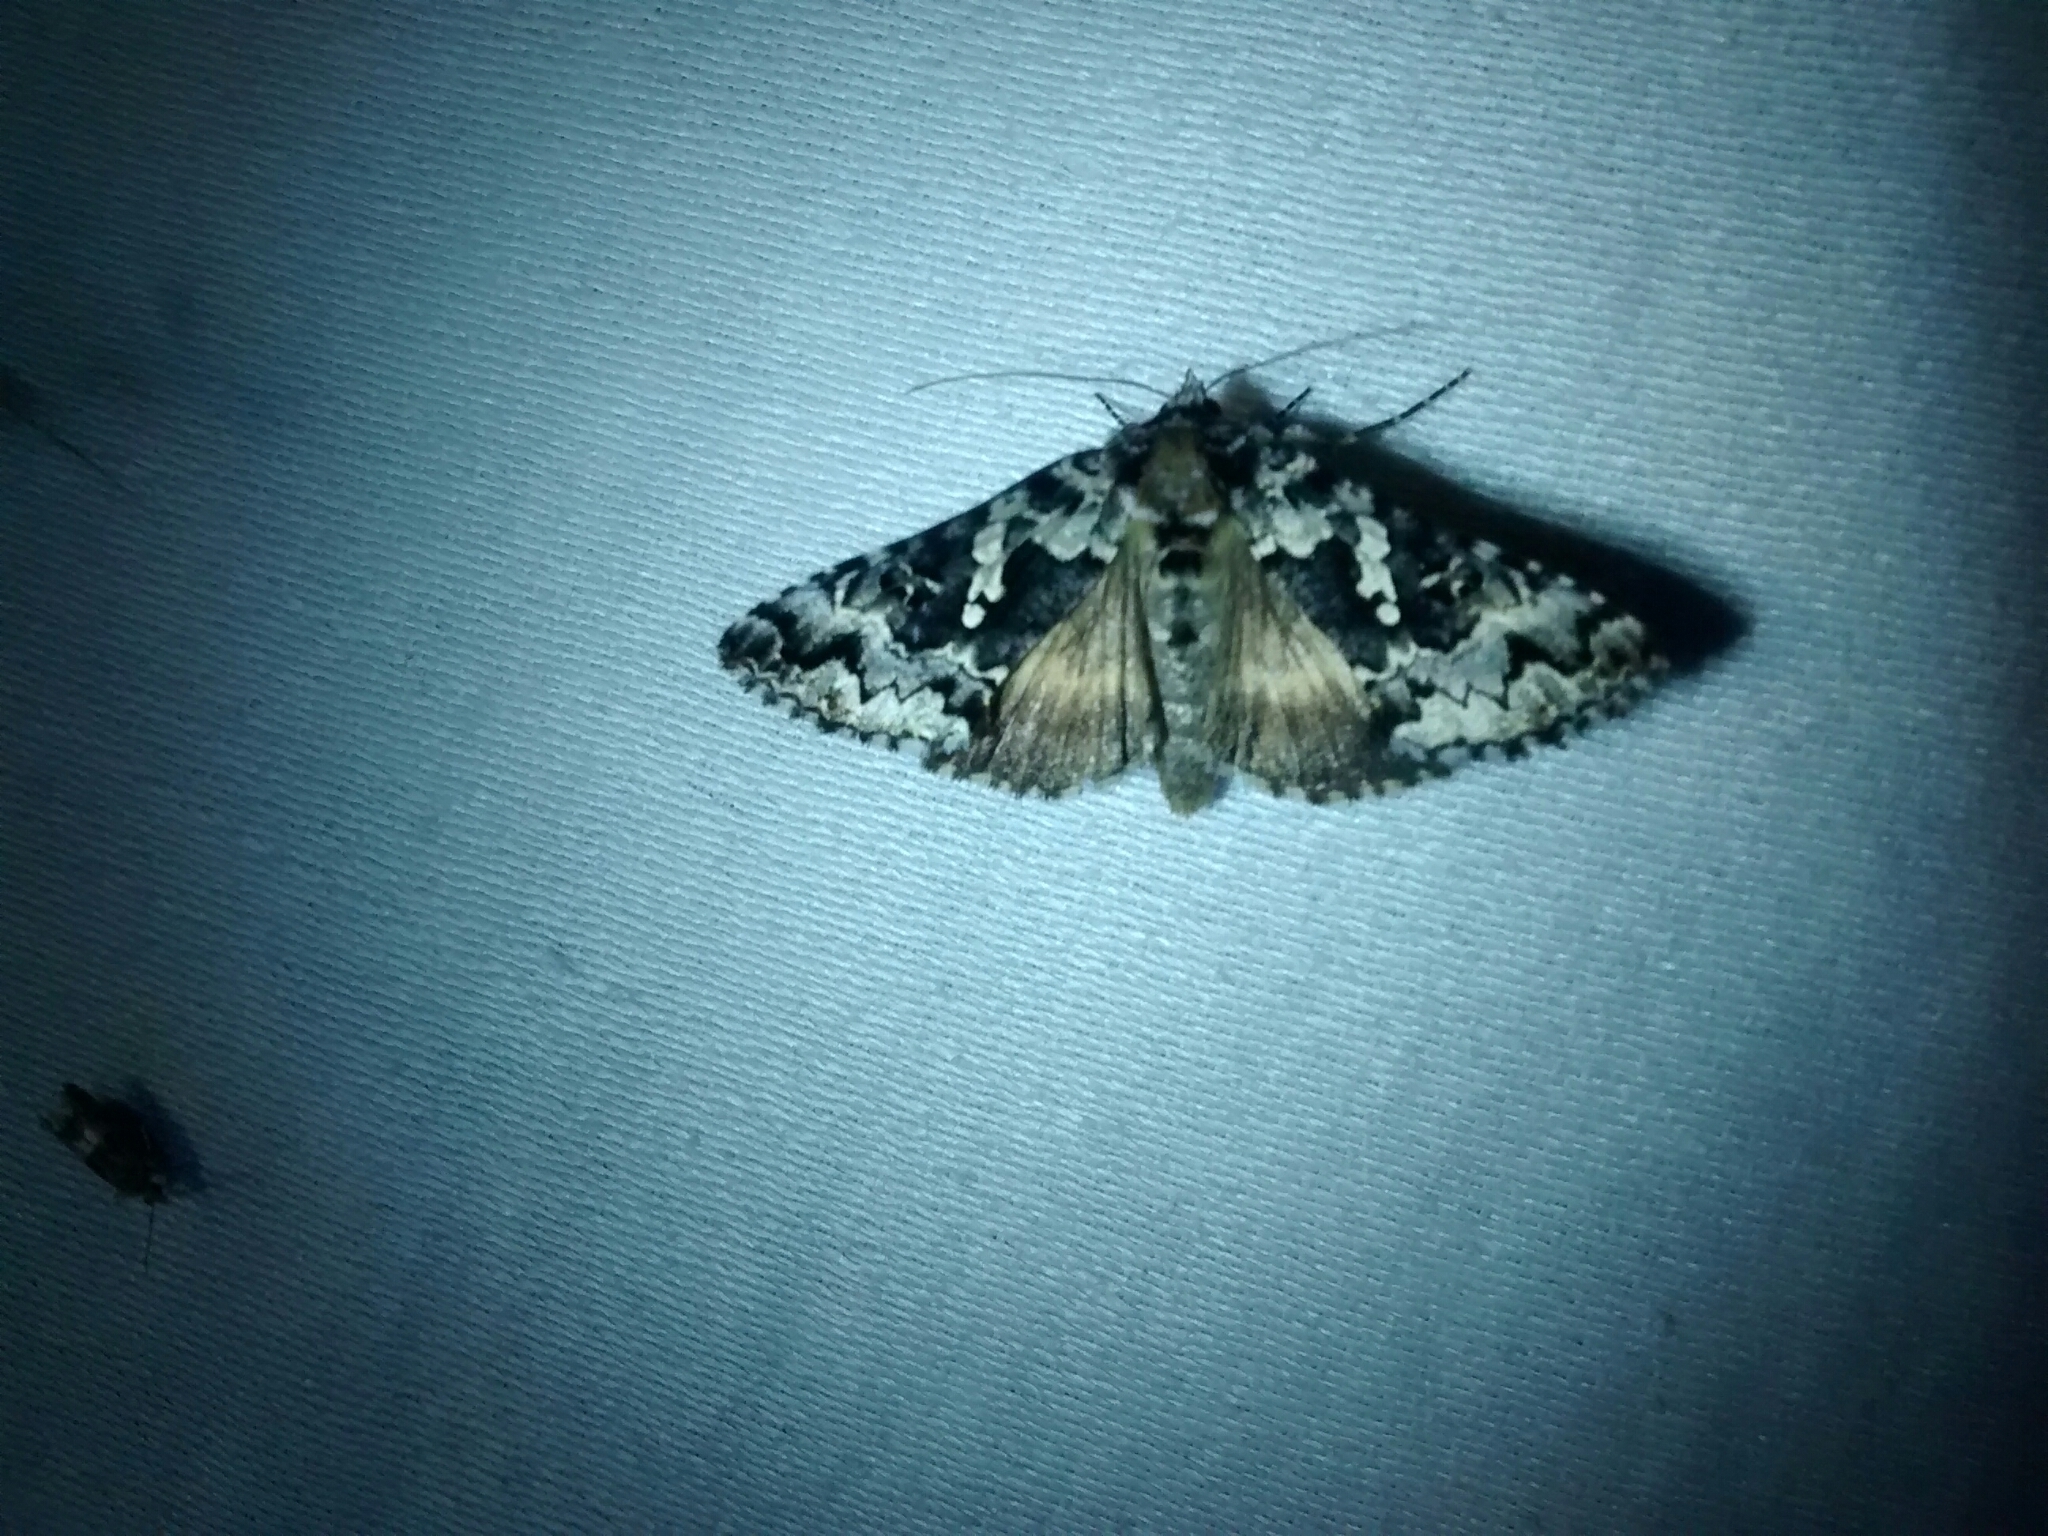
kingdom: Animalia
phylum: Arthropoda
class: Insecta
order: Lepidoptera
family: Noctuidae
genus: Syngrapha
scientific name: Syngrapha rectangula
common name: Angulated cutworm
